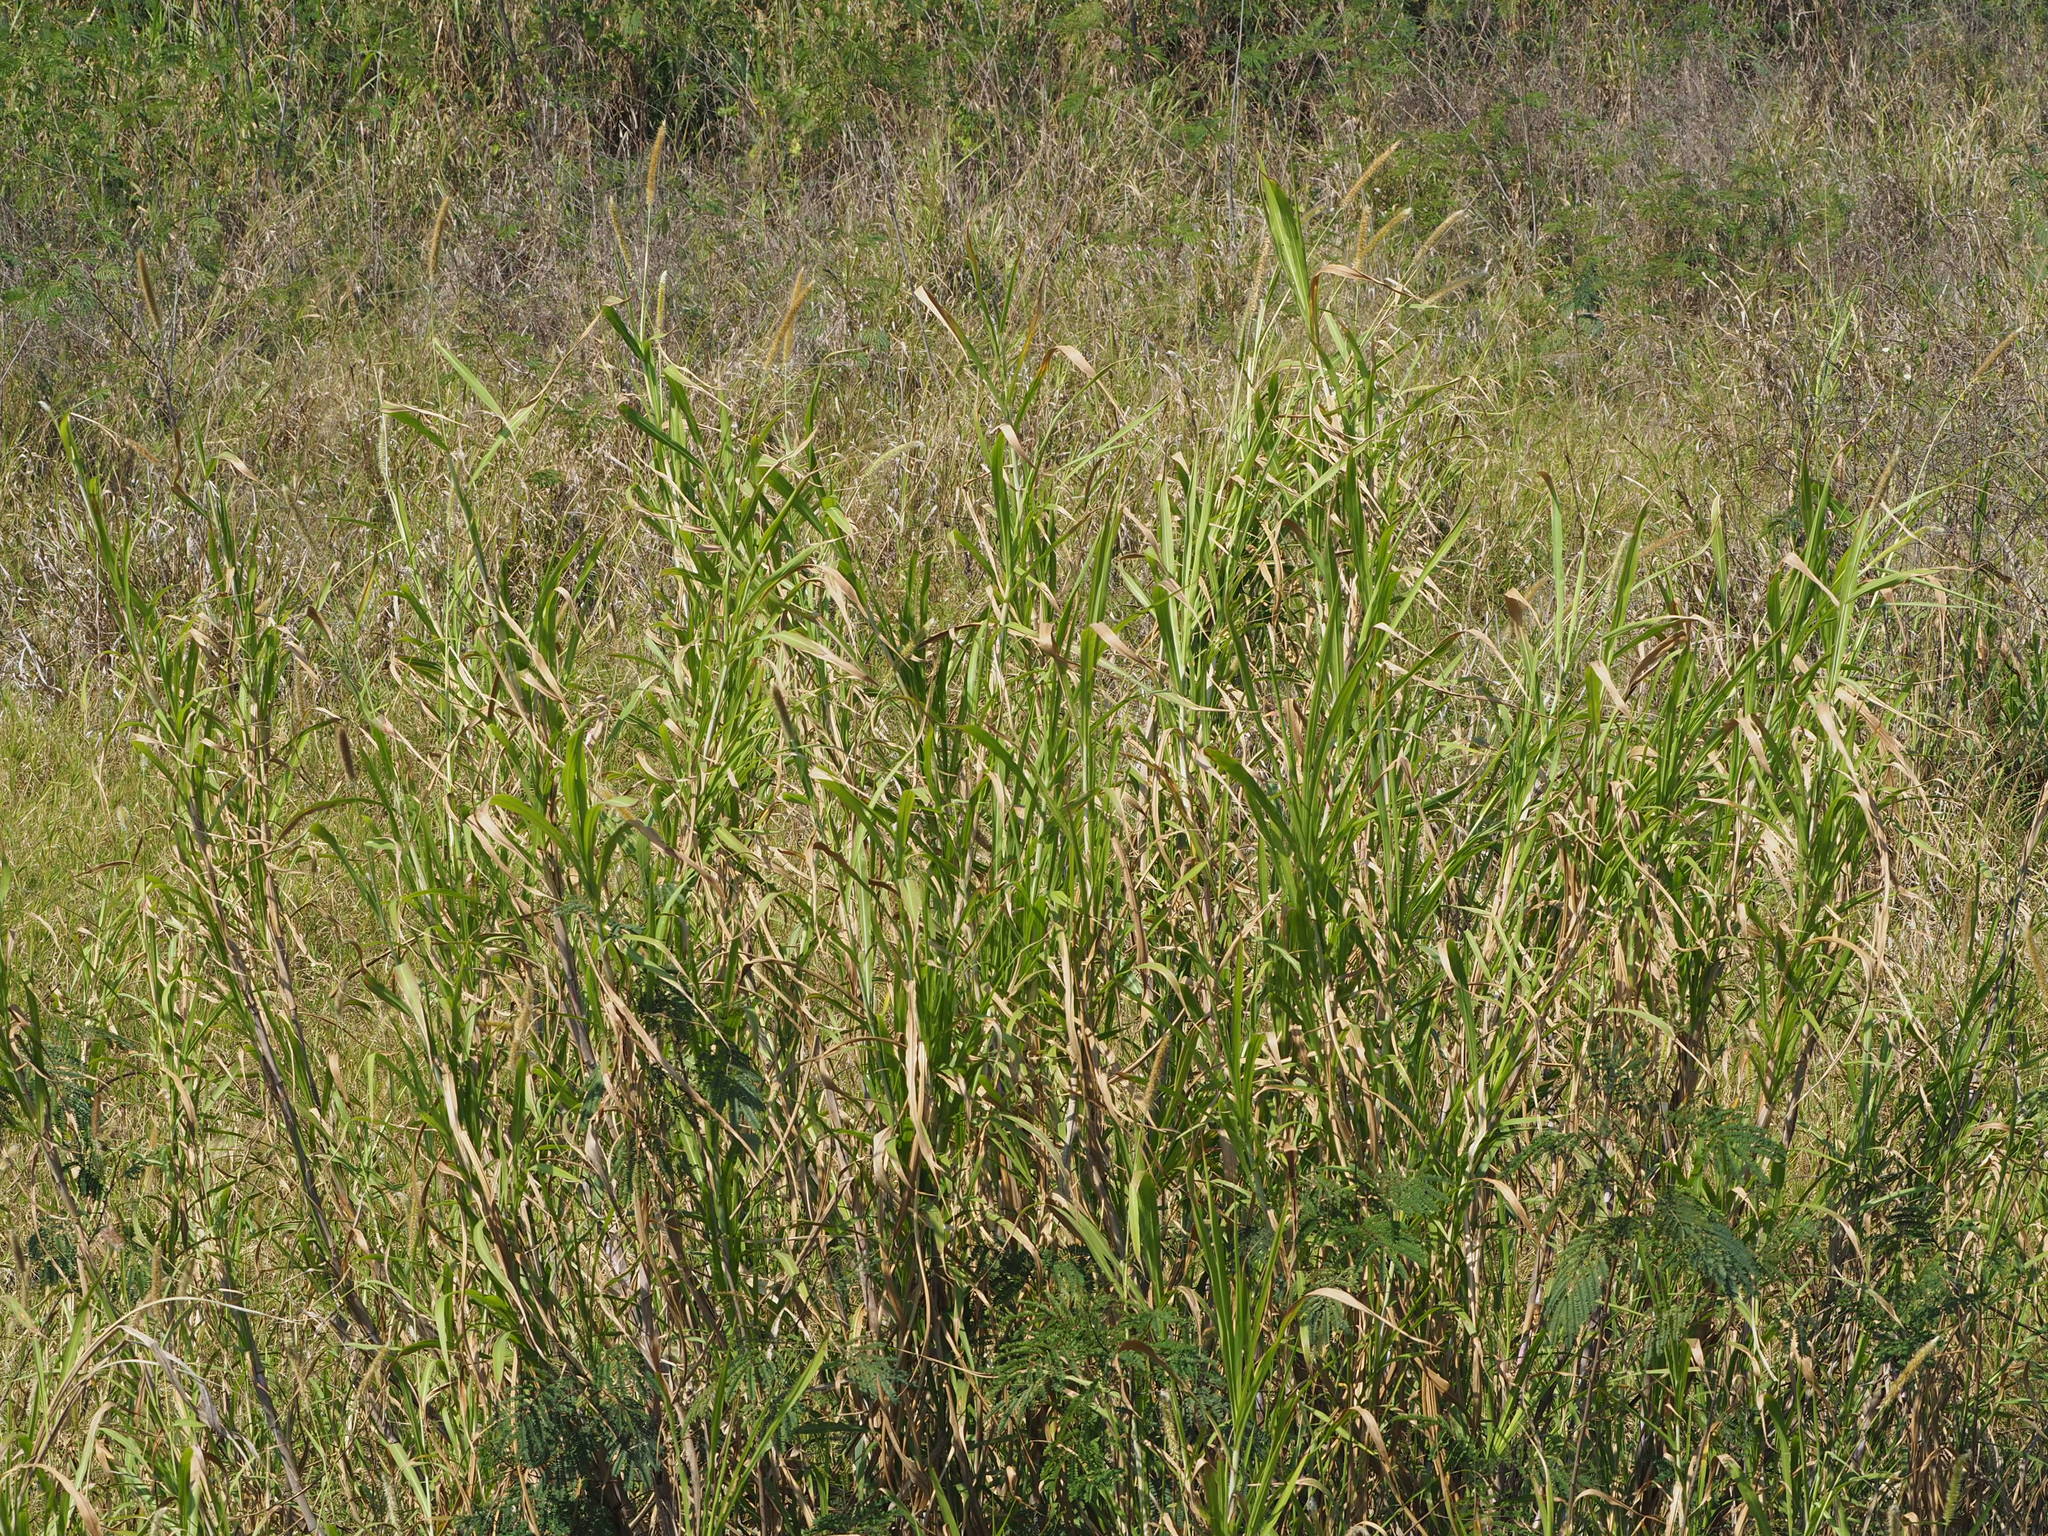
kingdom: Plantae
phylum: Tracheophyta
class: Liliopsida
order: Poales
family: Poaceae
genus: Cenchrus
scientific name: Cenchrus purpureus
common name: Elephant grass
